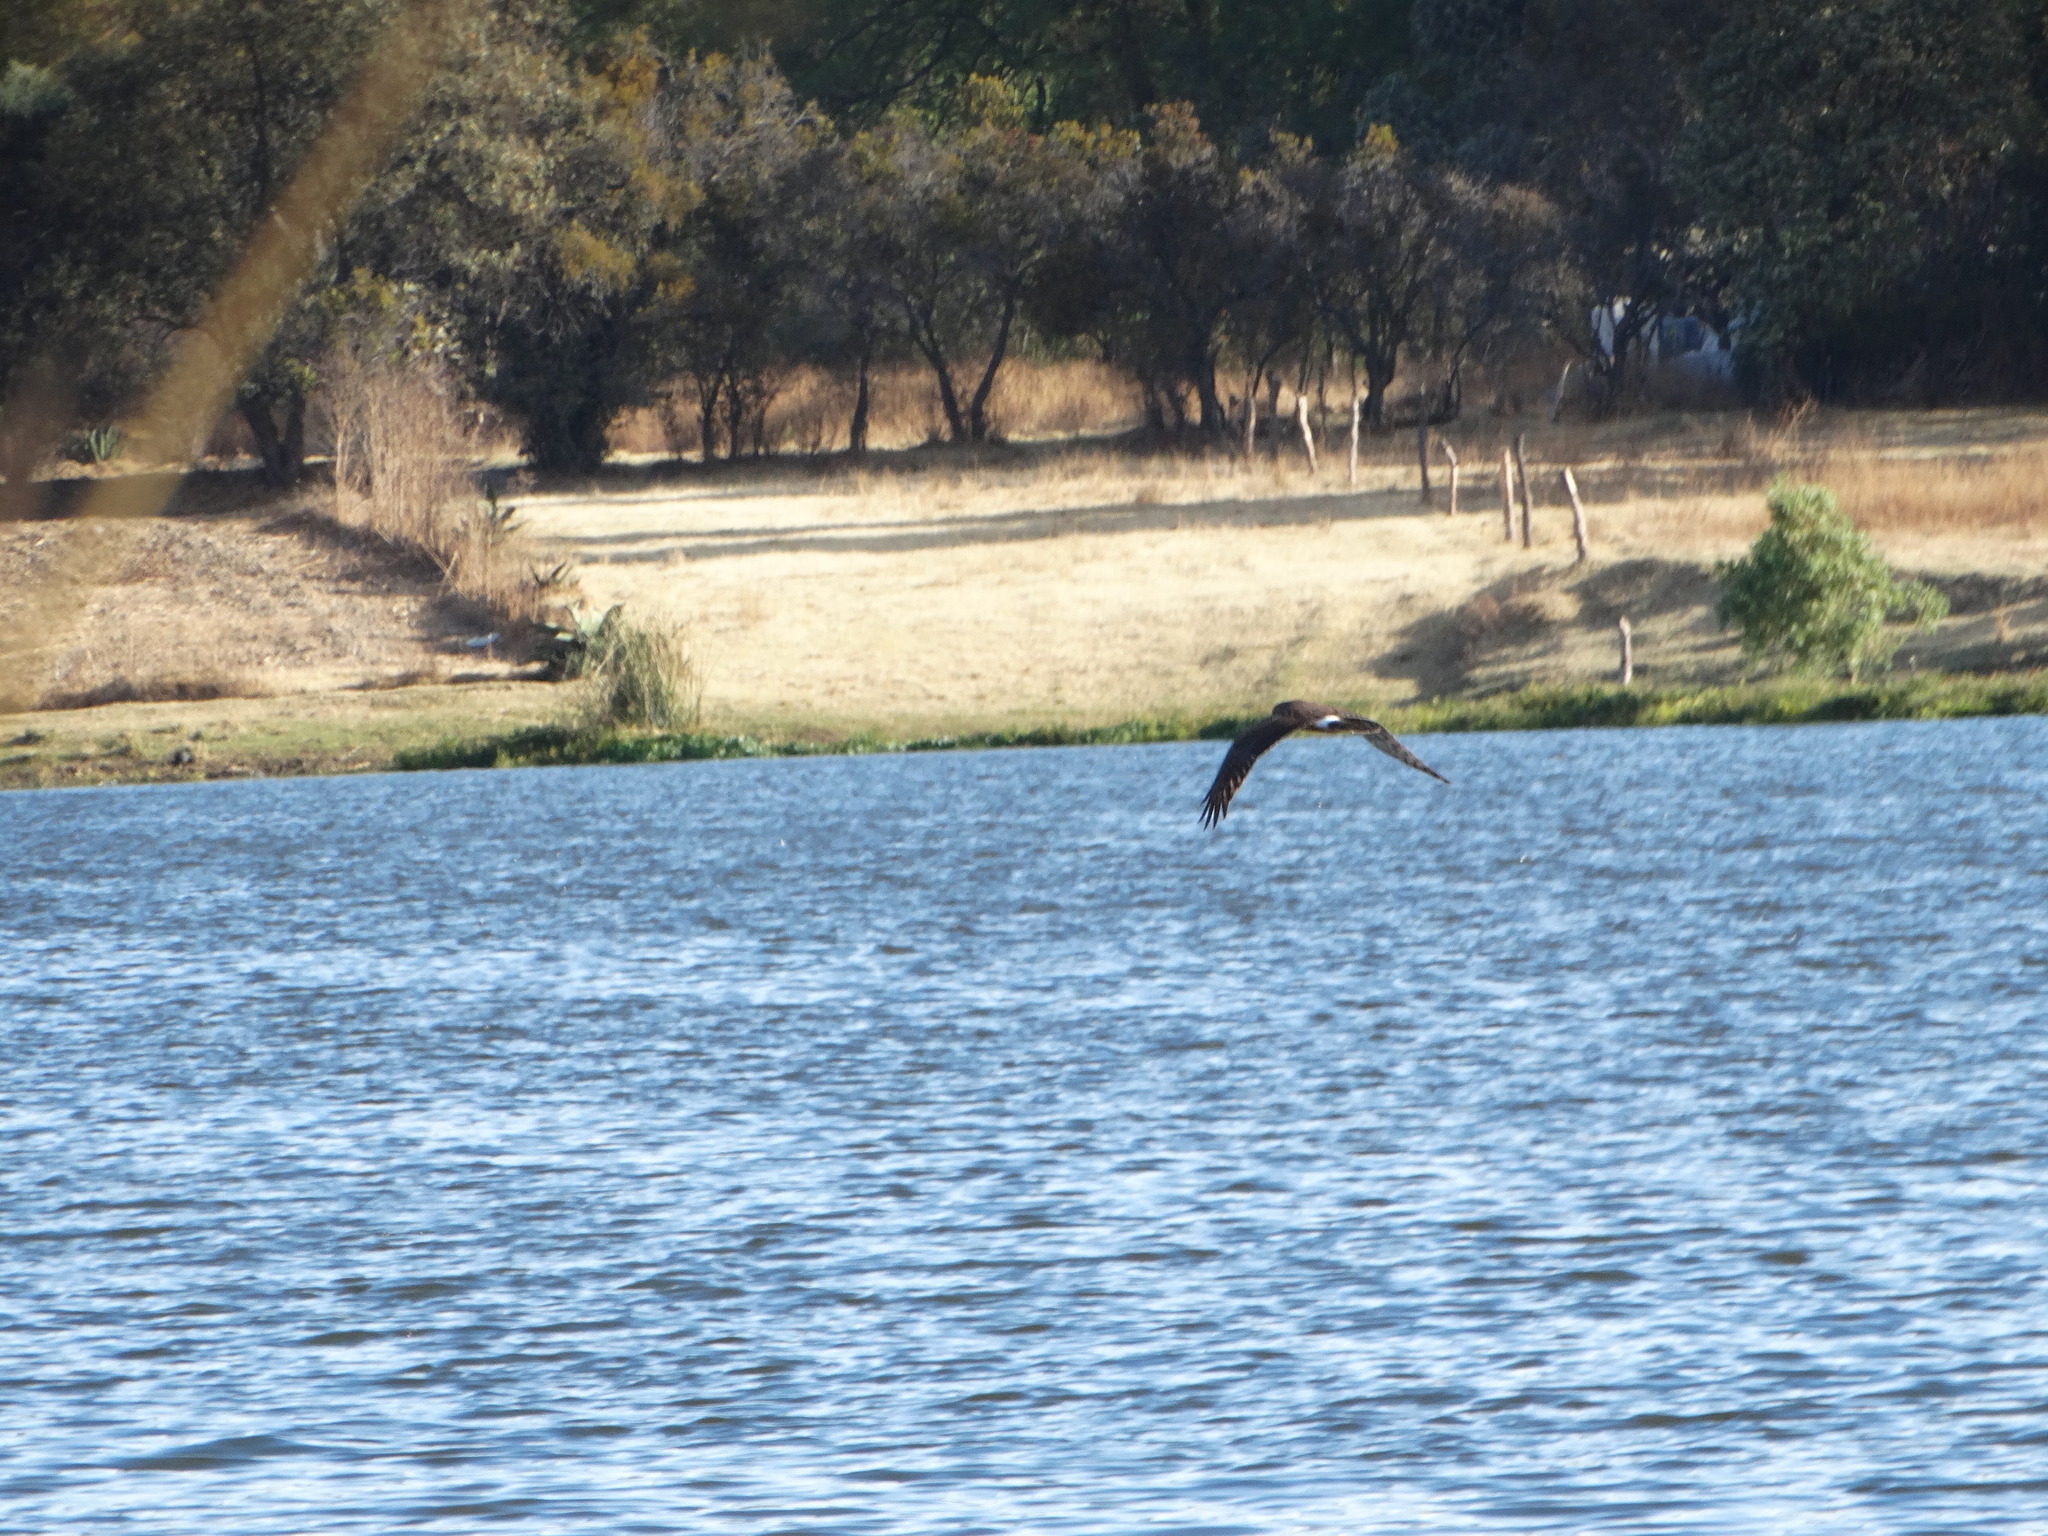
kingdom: Animalia
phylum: Chordata
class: Aves
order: Accipitriformes
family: Accipitridae
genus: Circus
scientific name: Circus cyaneus
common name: Hen harrier
